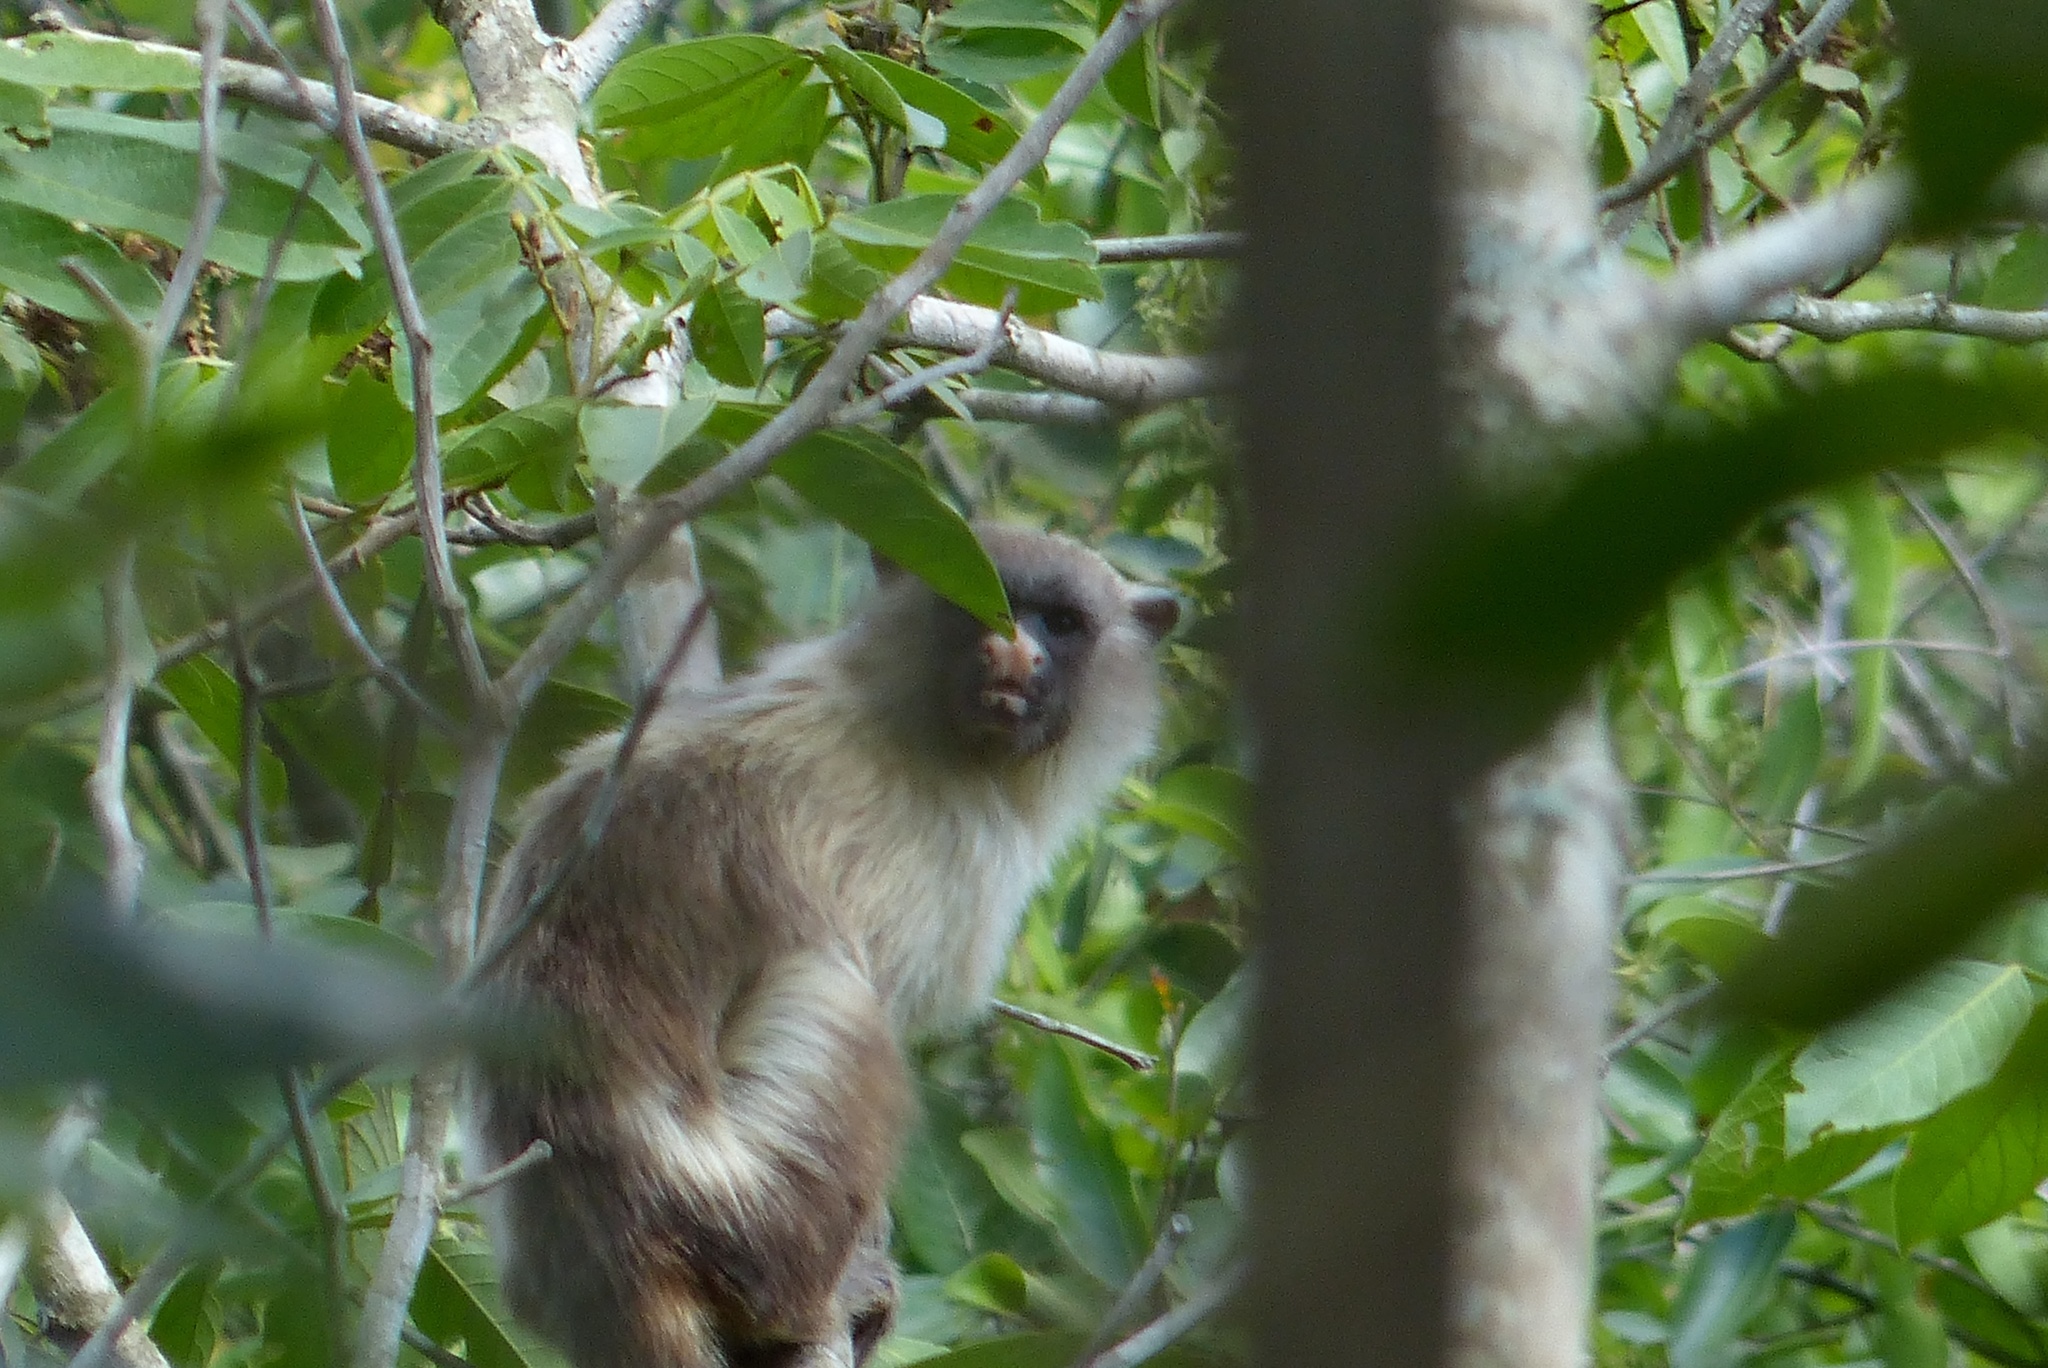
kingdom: Animalia
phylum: Chordata
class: Mammalia
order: Primates
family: Callitrichidae
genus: Mico
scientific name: Mico melanurus
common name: Black-tailed marmoset
